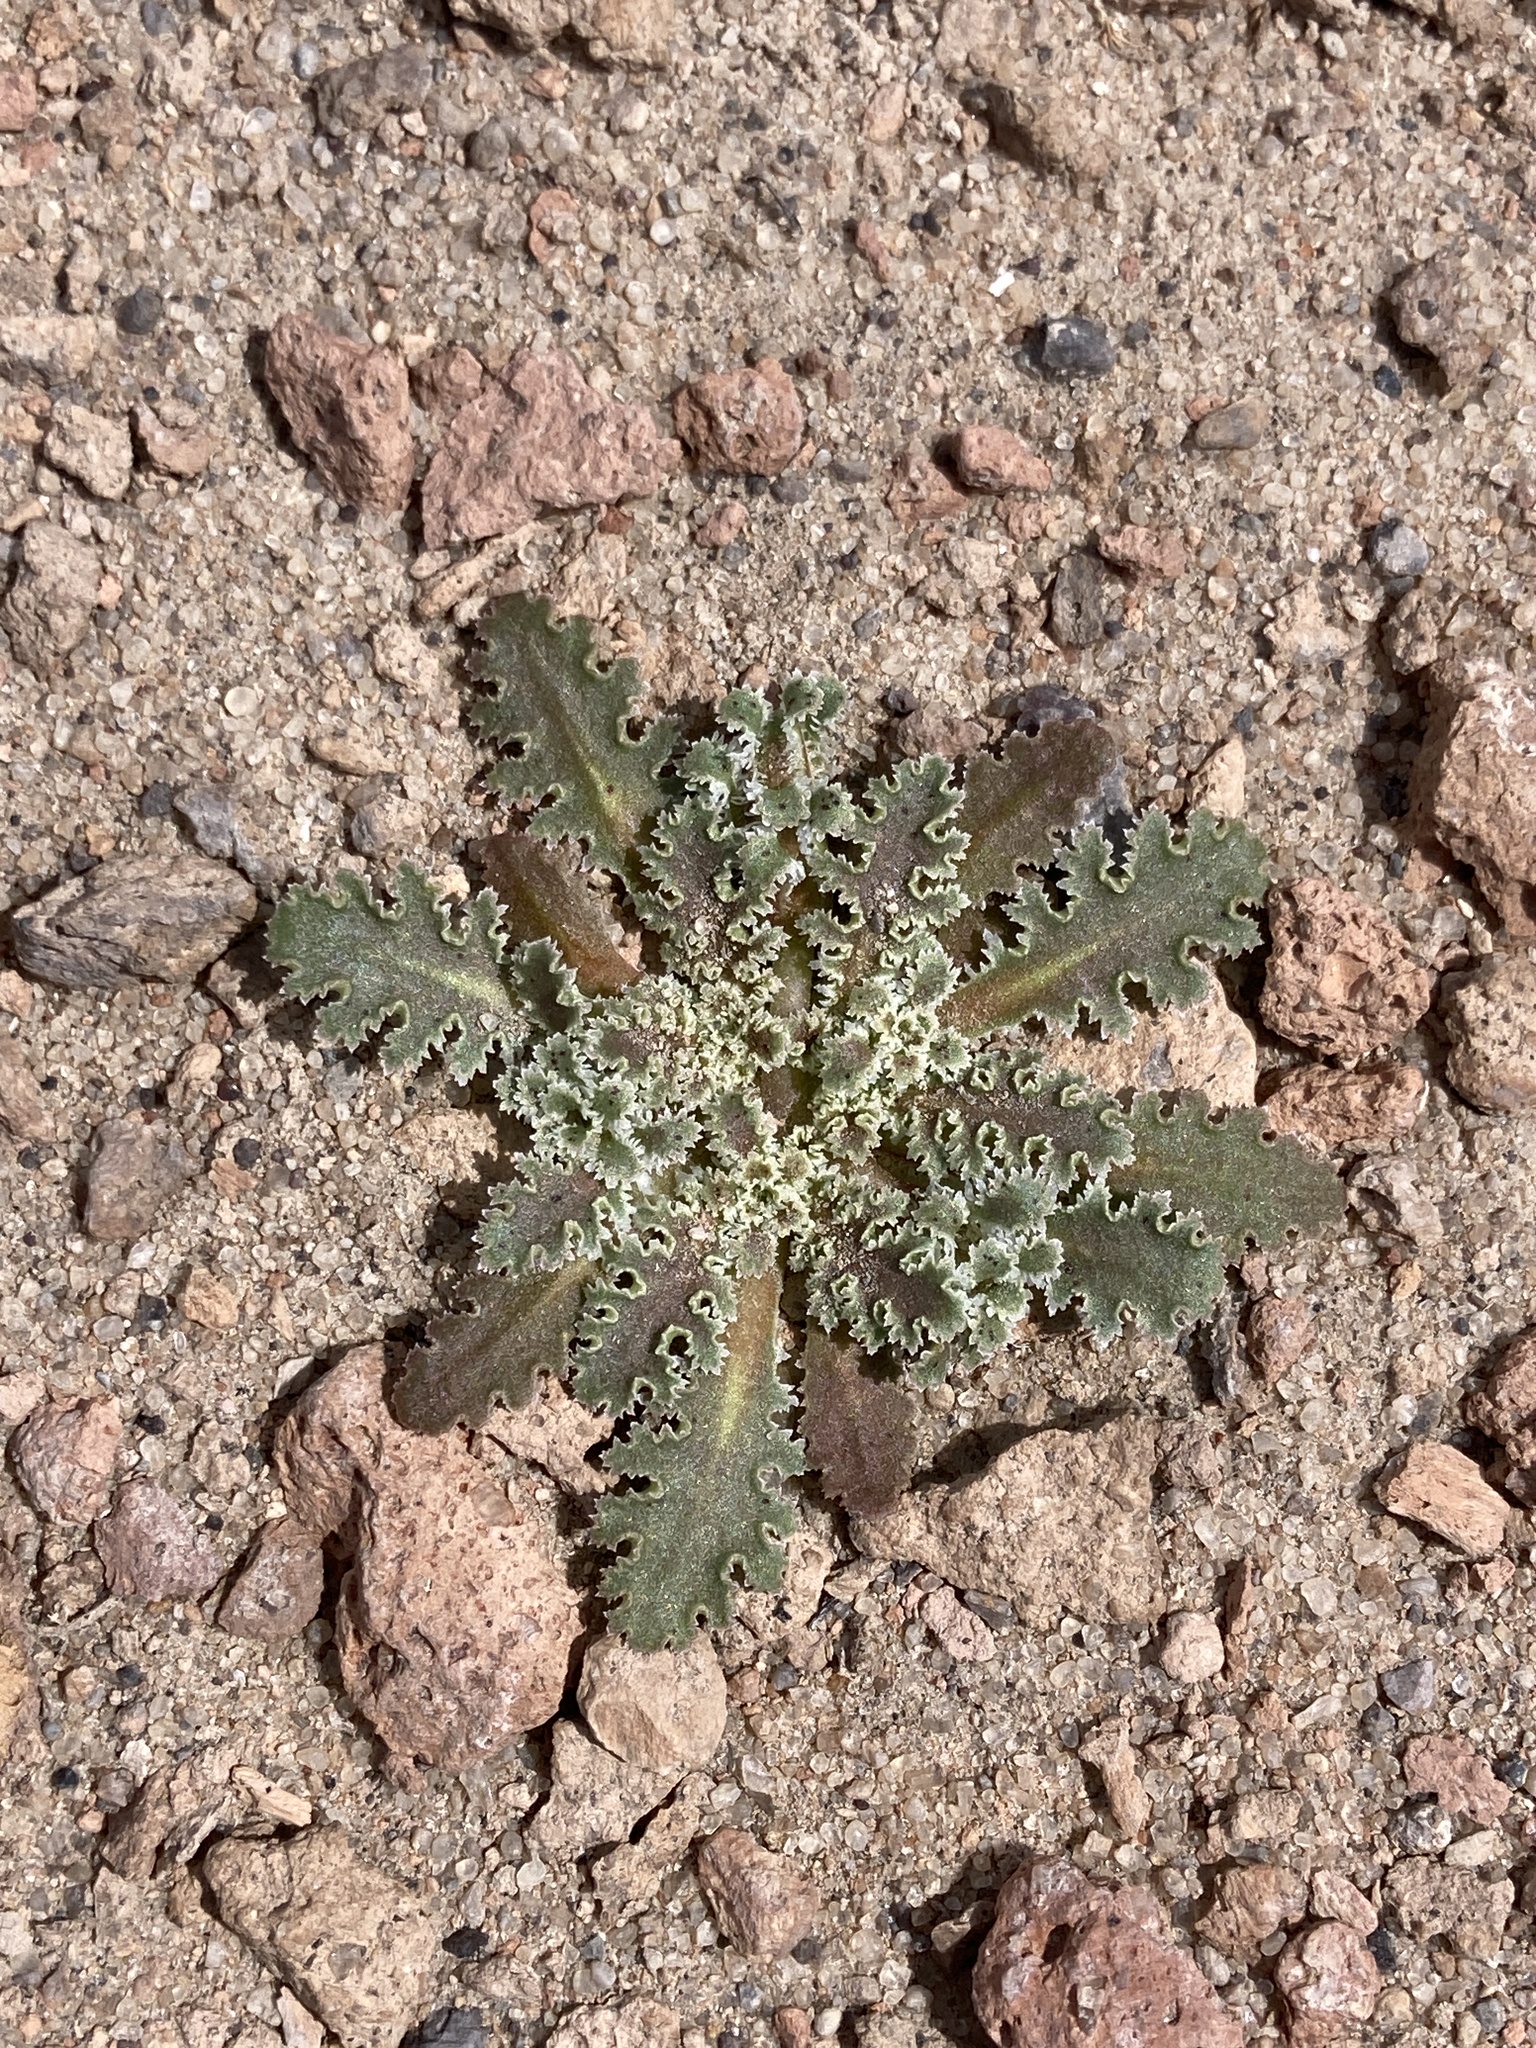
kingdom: Plantae
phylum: Tracheophyta
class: Magnoliopsida
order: Asterales
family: Asteraceae
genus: Glyptopleura
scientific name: Glyptopleura marginata
